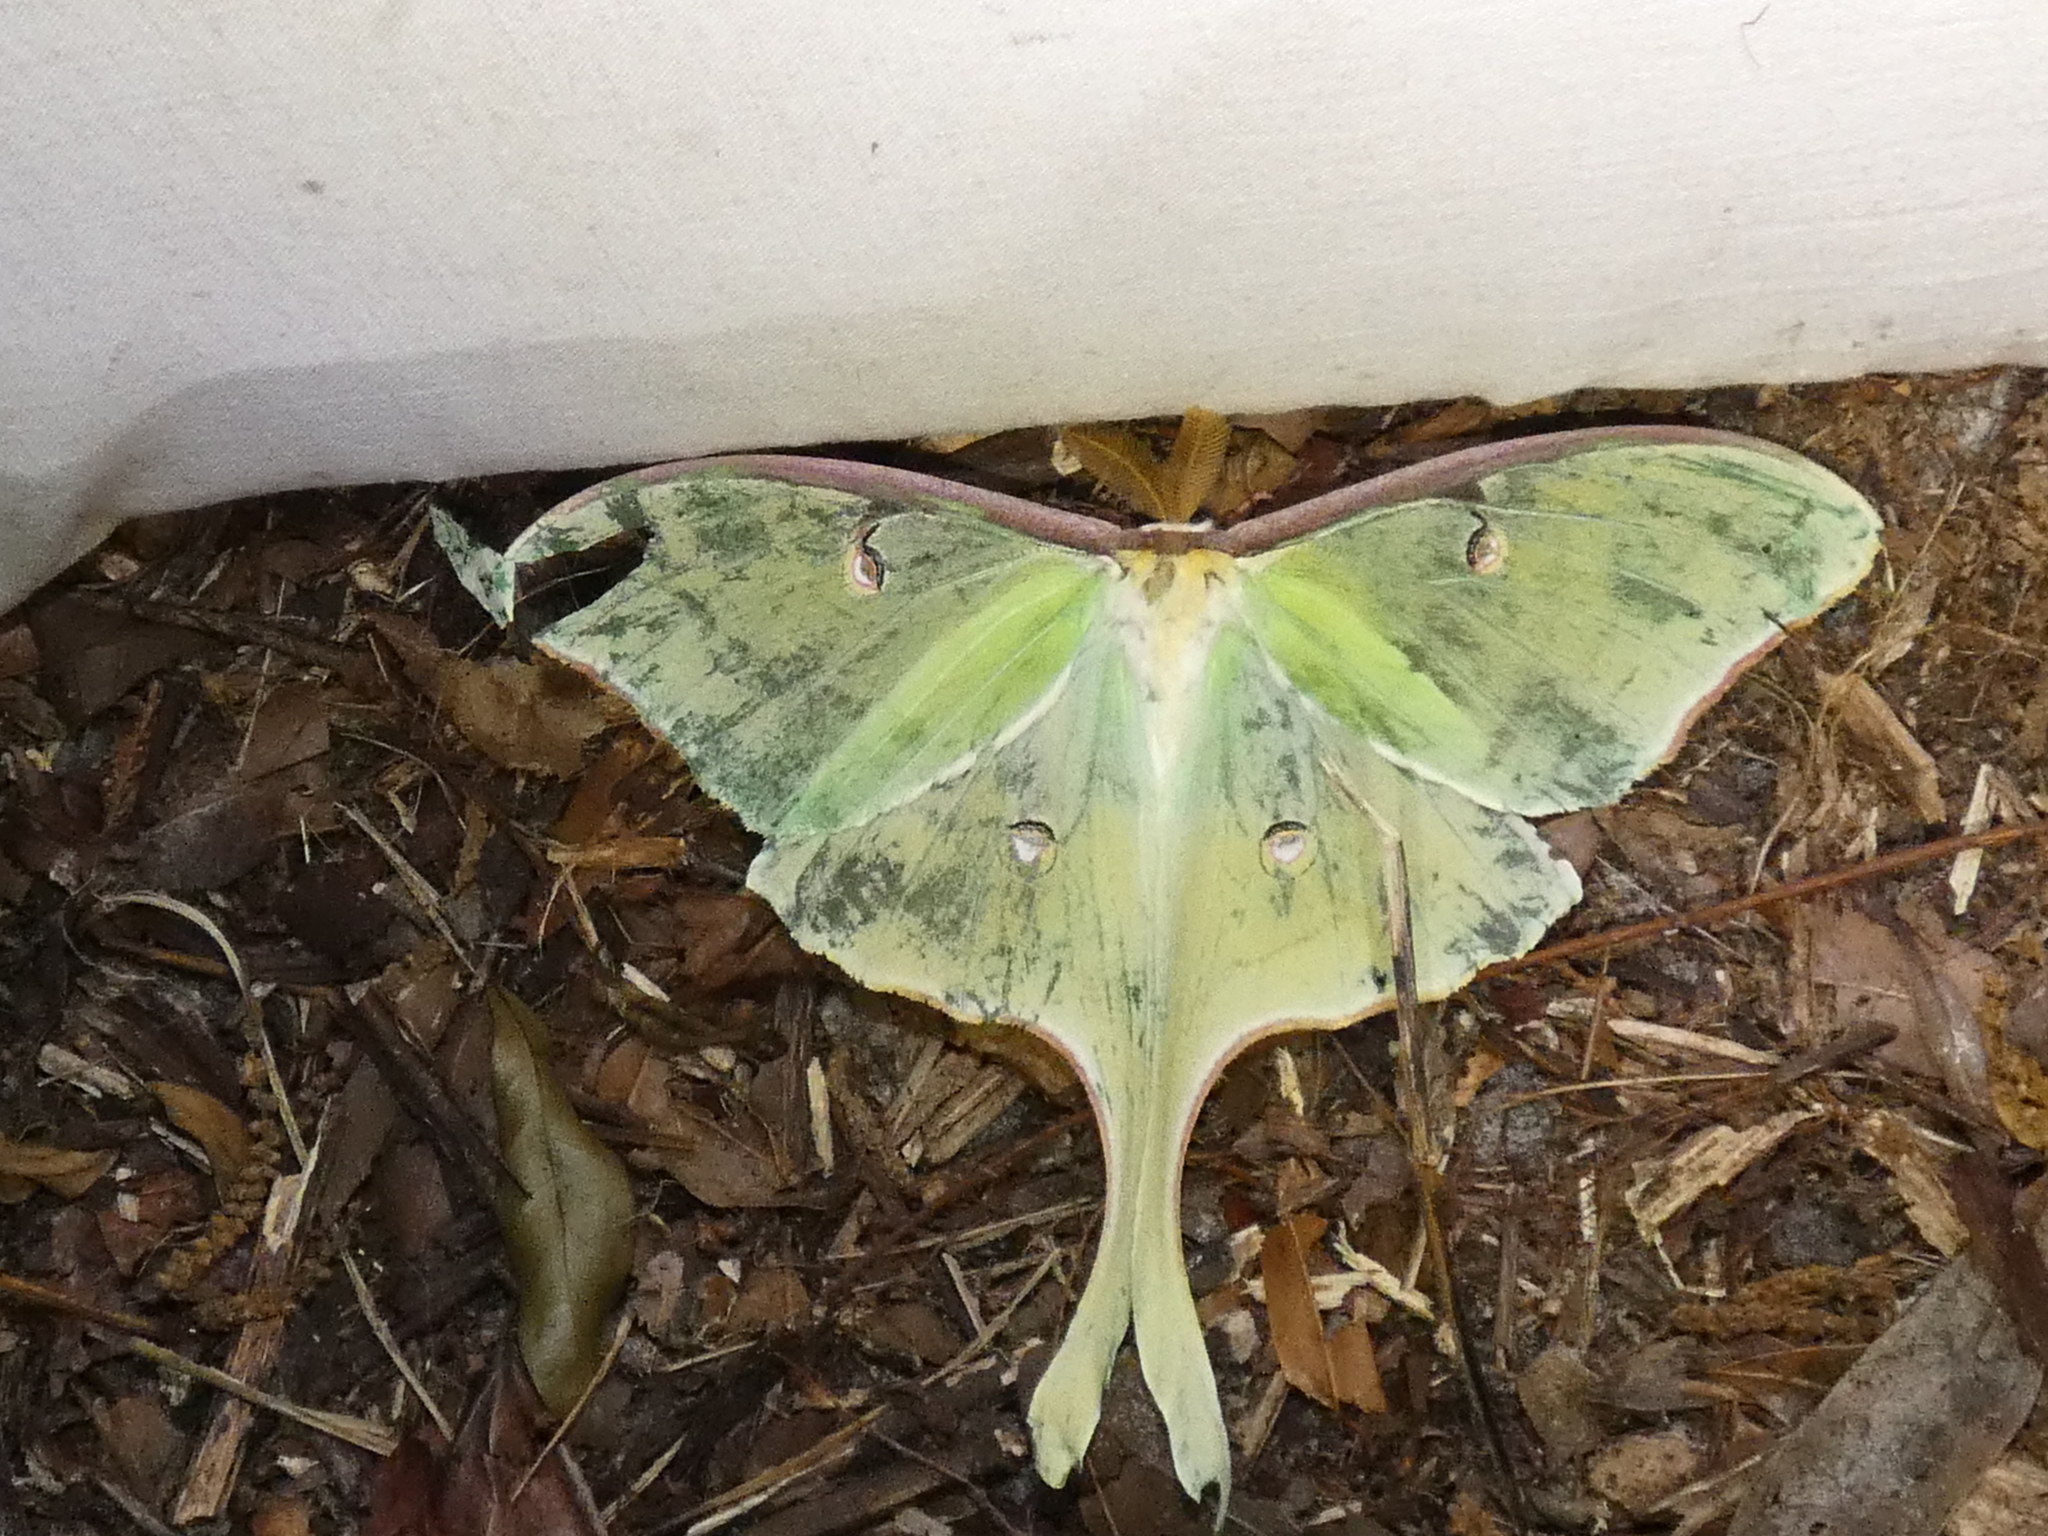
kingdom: Animalia
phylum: Arthropoda
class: Insecta
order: Lepidoptera
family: Saturniidae
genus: Actias
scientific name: Actias luna
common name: Luna moth
